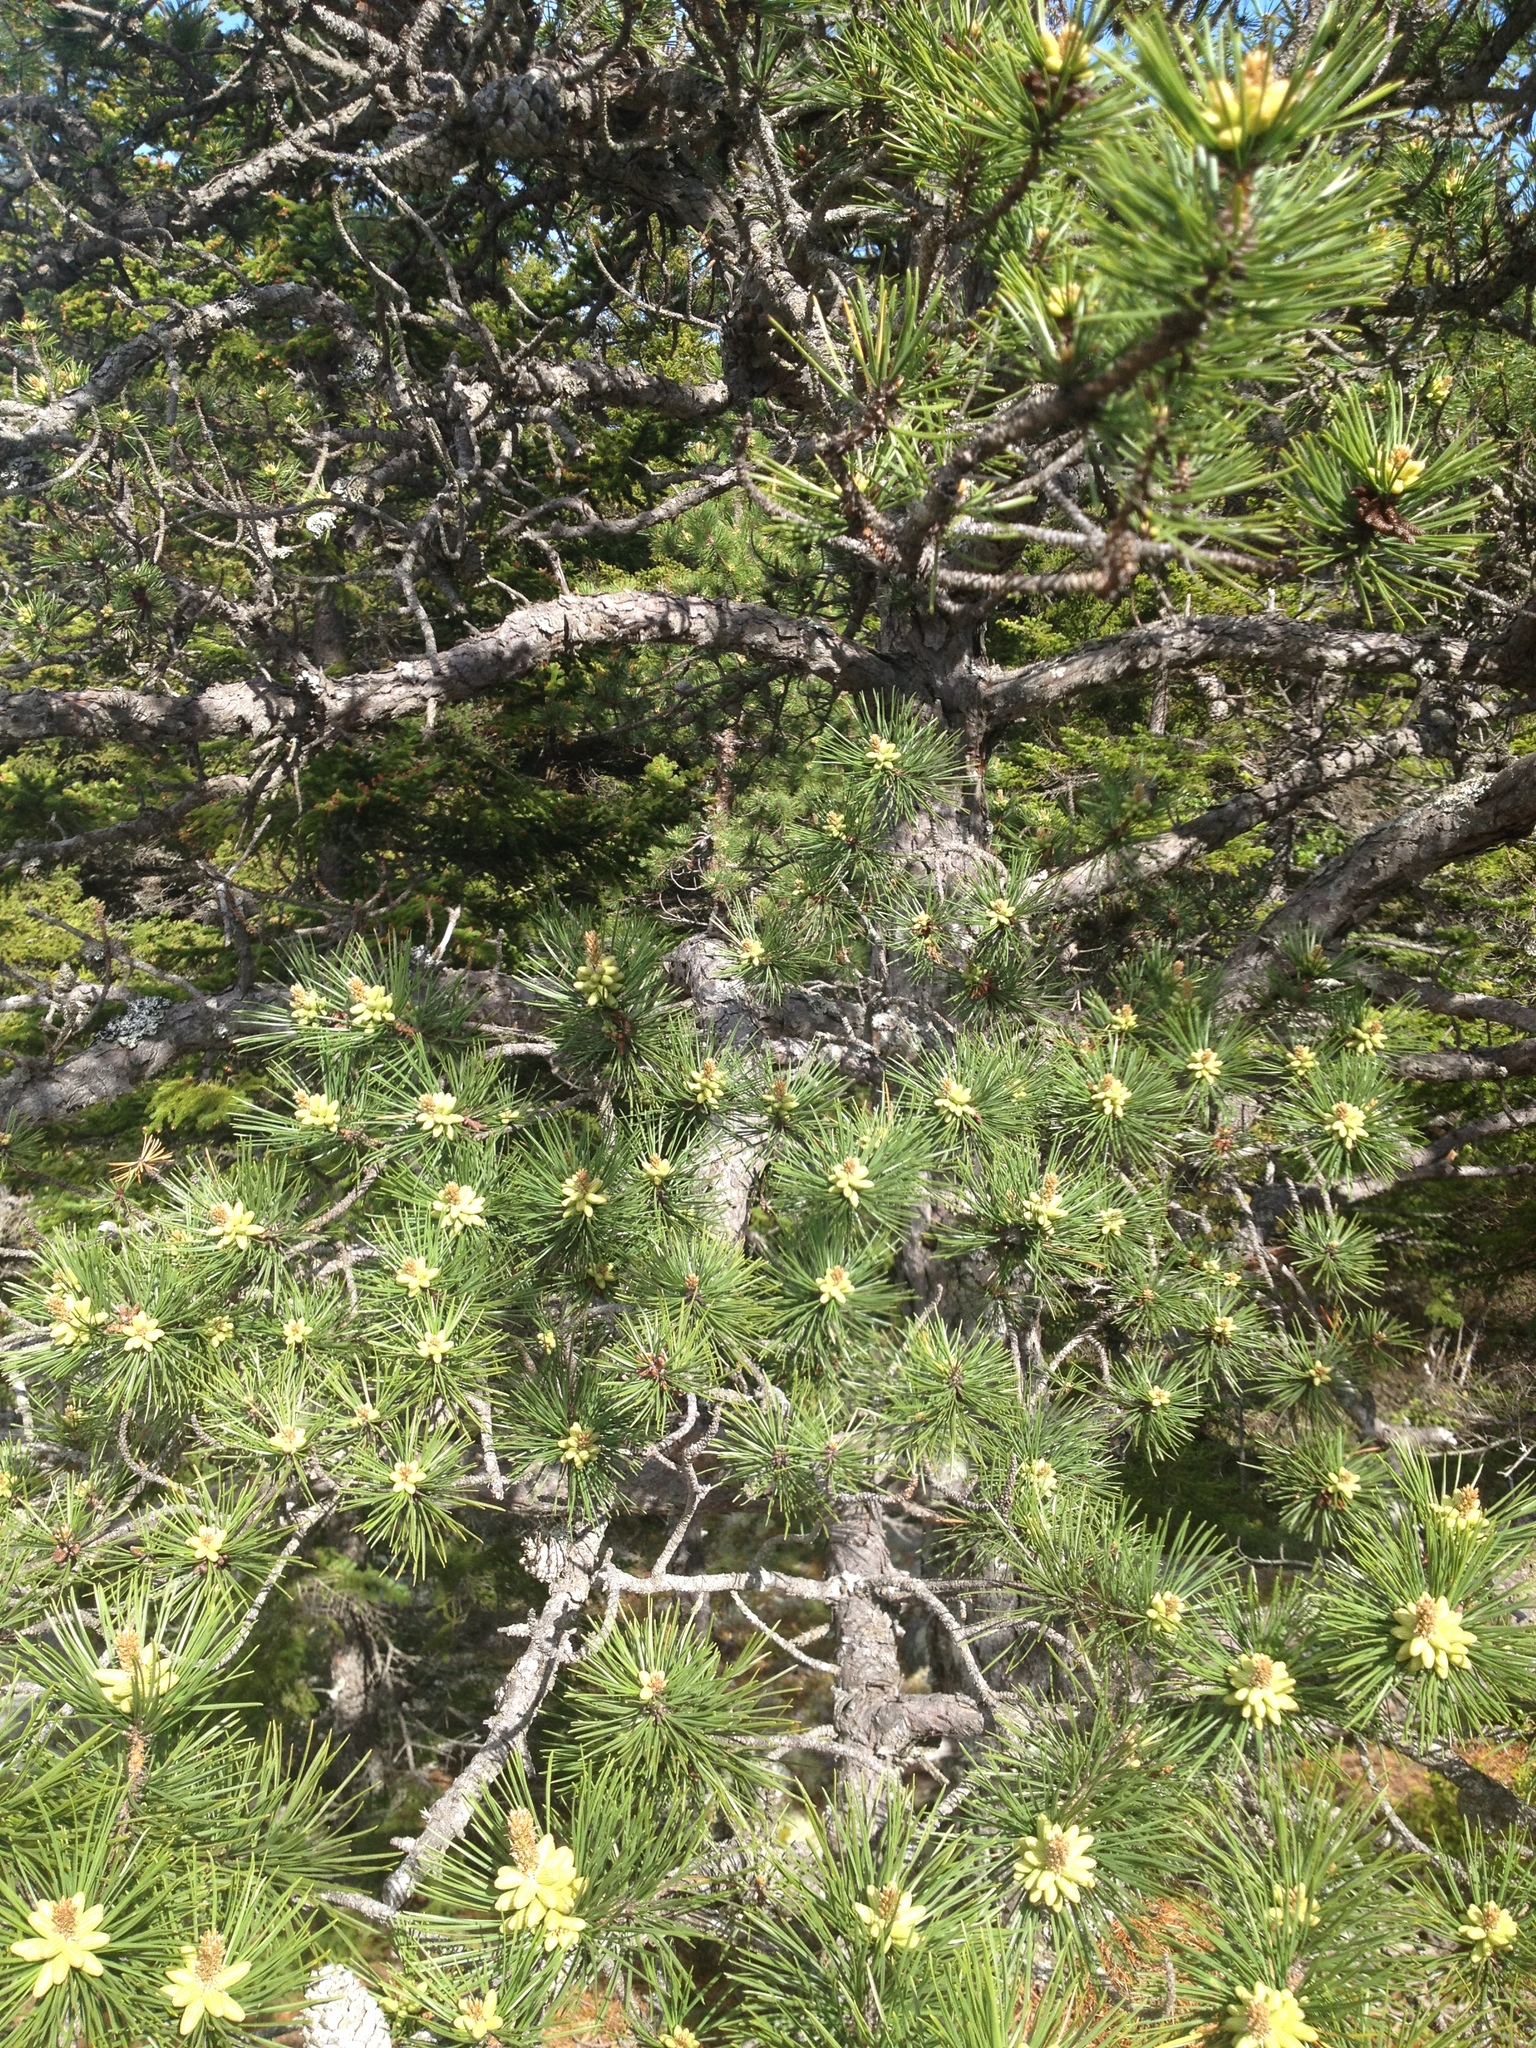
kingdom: Plantae
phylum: Tracheophyta
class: Pinopsida
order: Pinales
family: Pinaceae
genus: Pinus
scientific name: Pinus rigida
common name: Pitch pine
